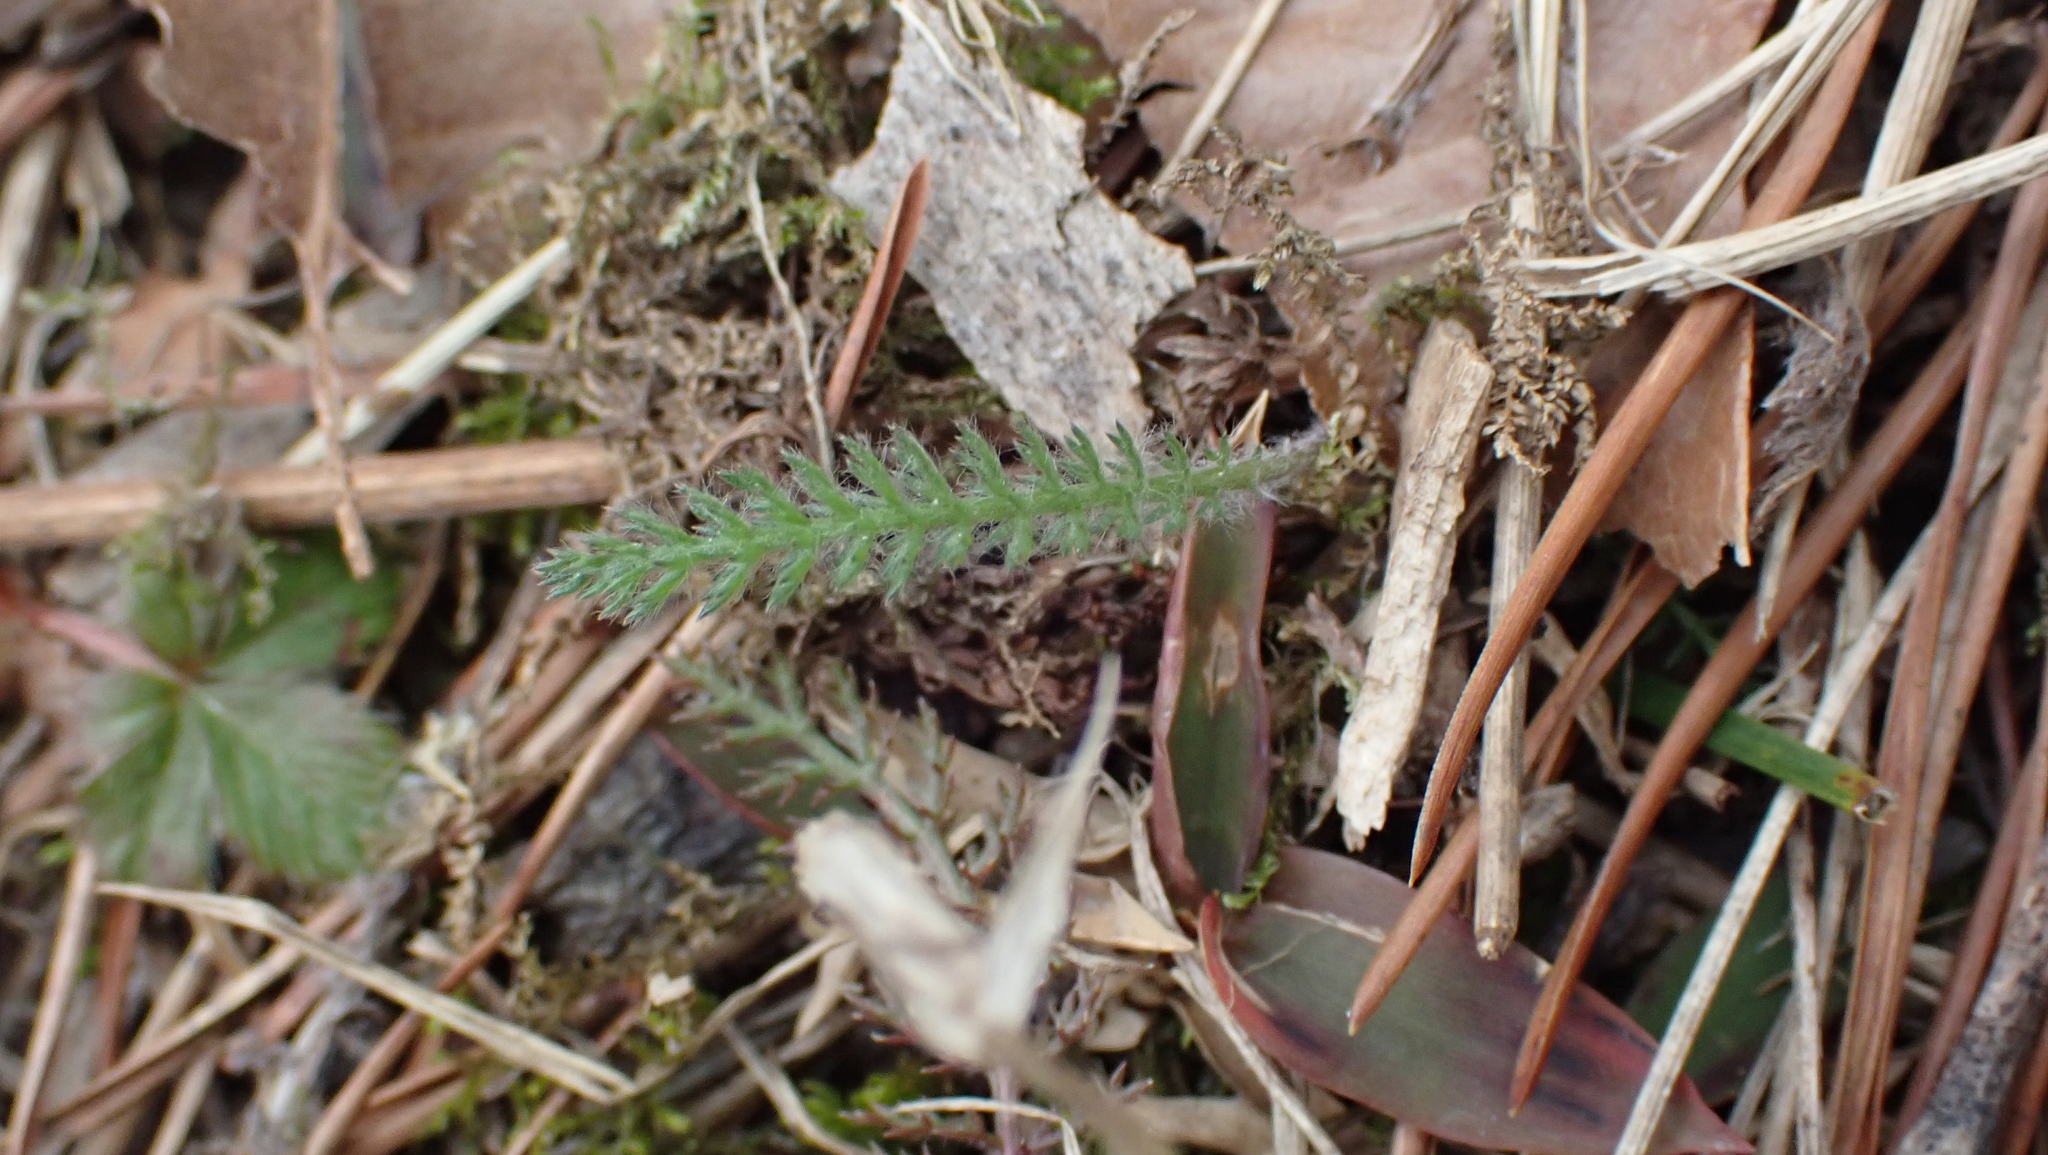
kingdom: Plantae
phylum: Tracheophyta
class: Magnoliopsida
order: Asterales
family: Asteraceae
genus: Achillea
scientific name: Achillea millefolium
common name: Yarrow
